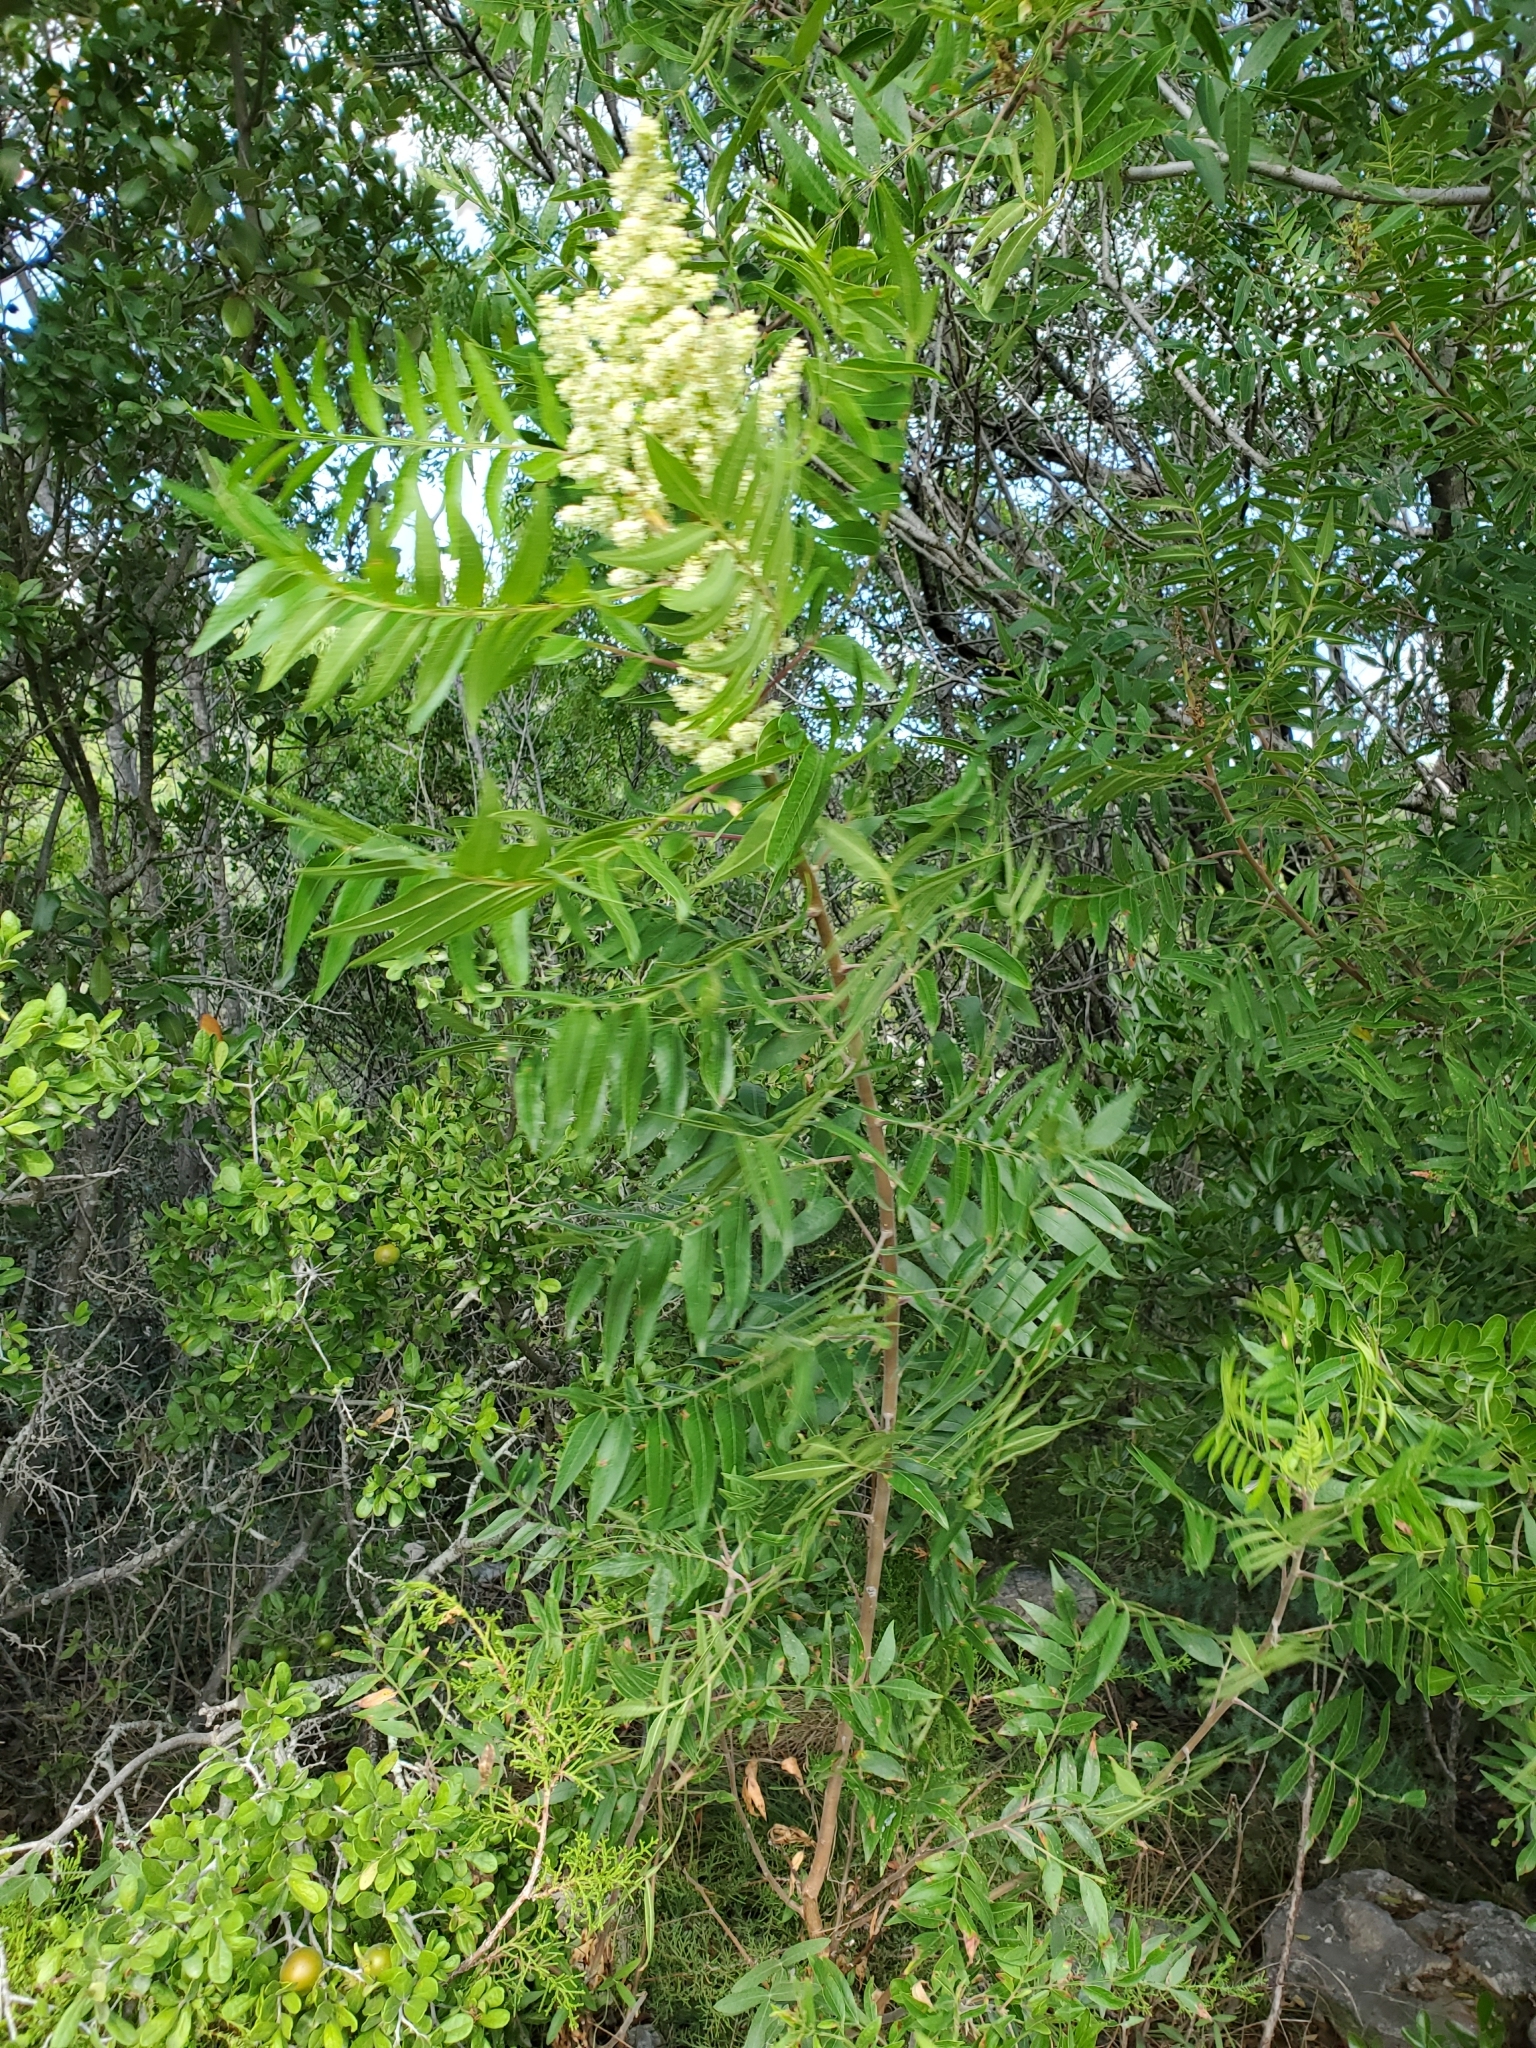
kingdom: Plantae
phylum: Tracheophyta
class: Magnoliopsida
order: Sapindales
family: Anacardiaceae
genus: Rhus
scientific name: Rhus lanceolata
